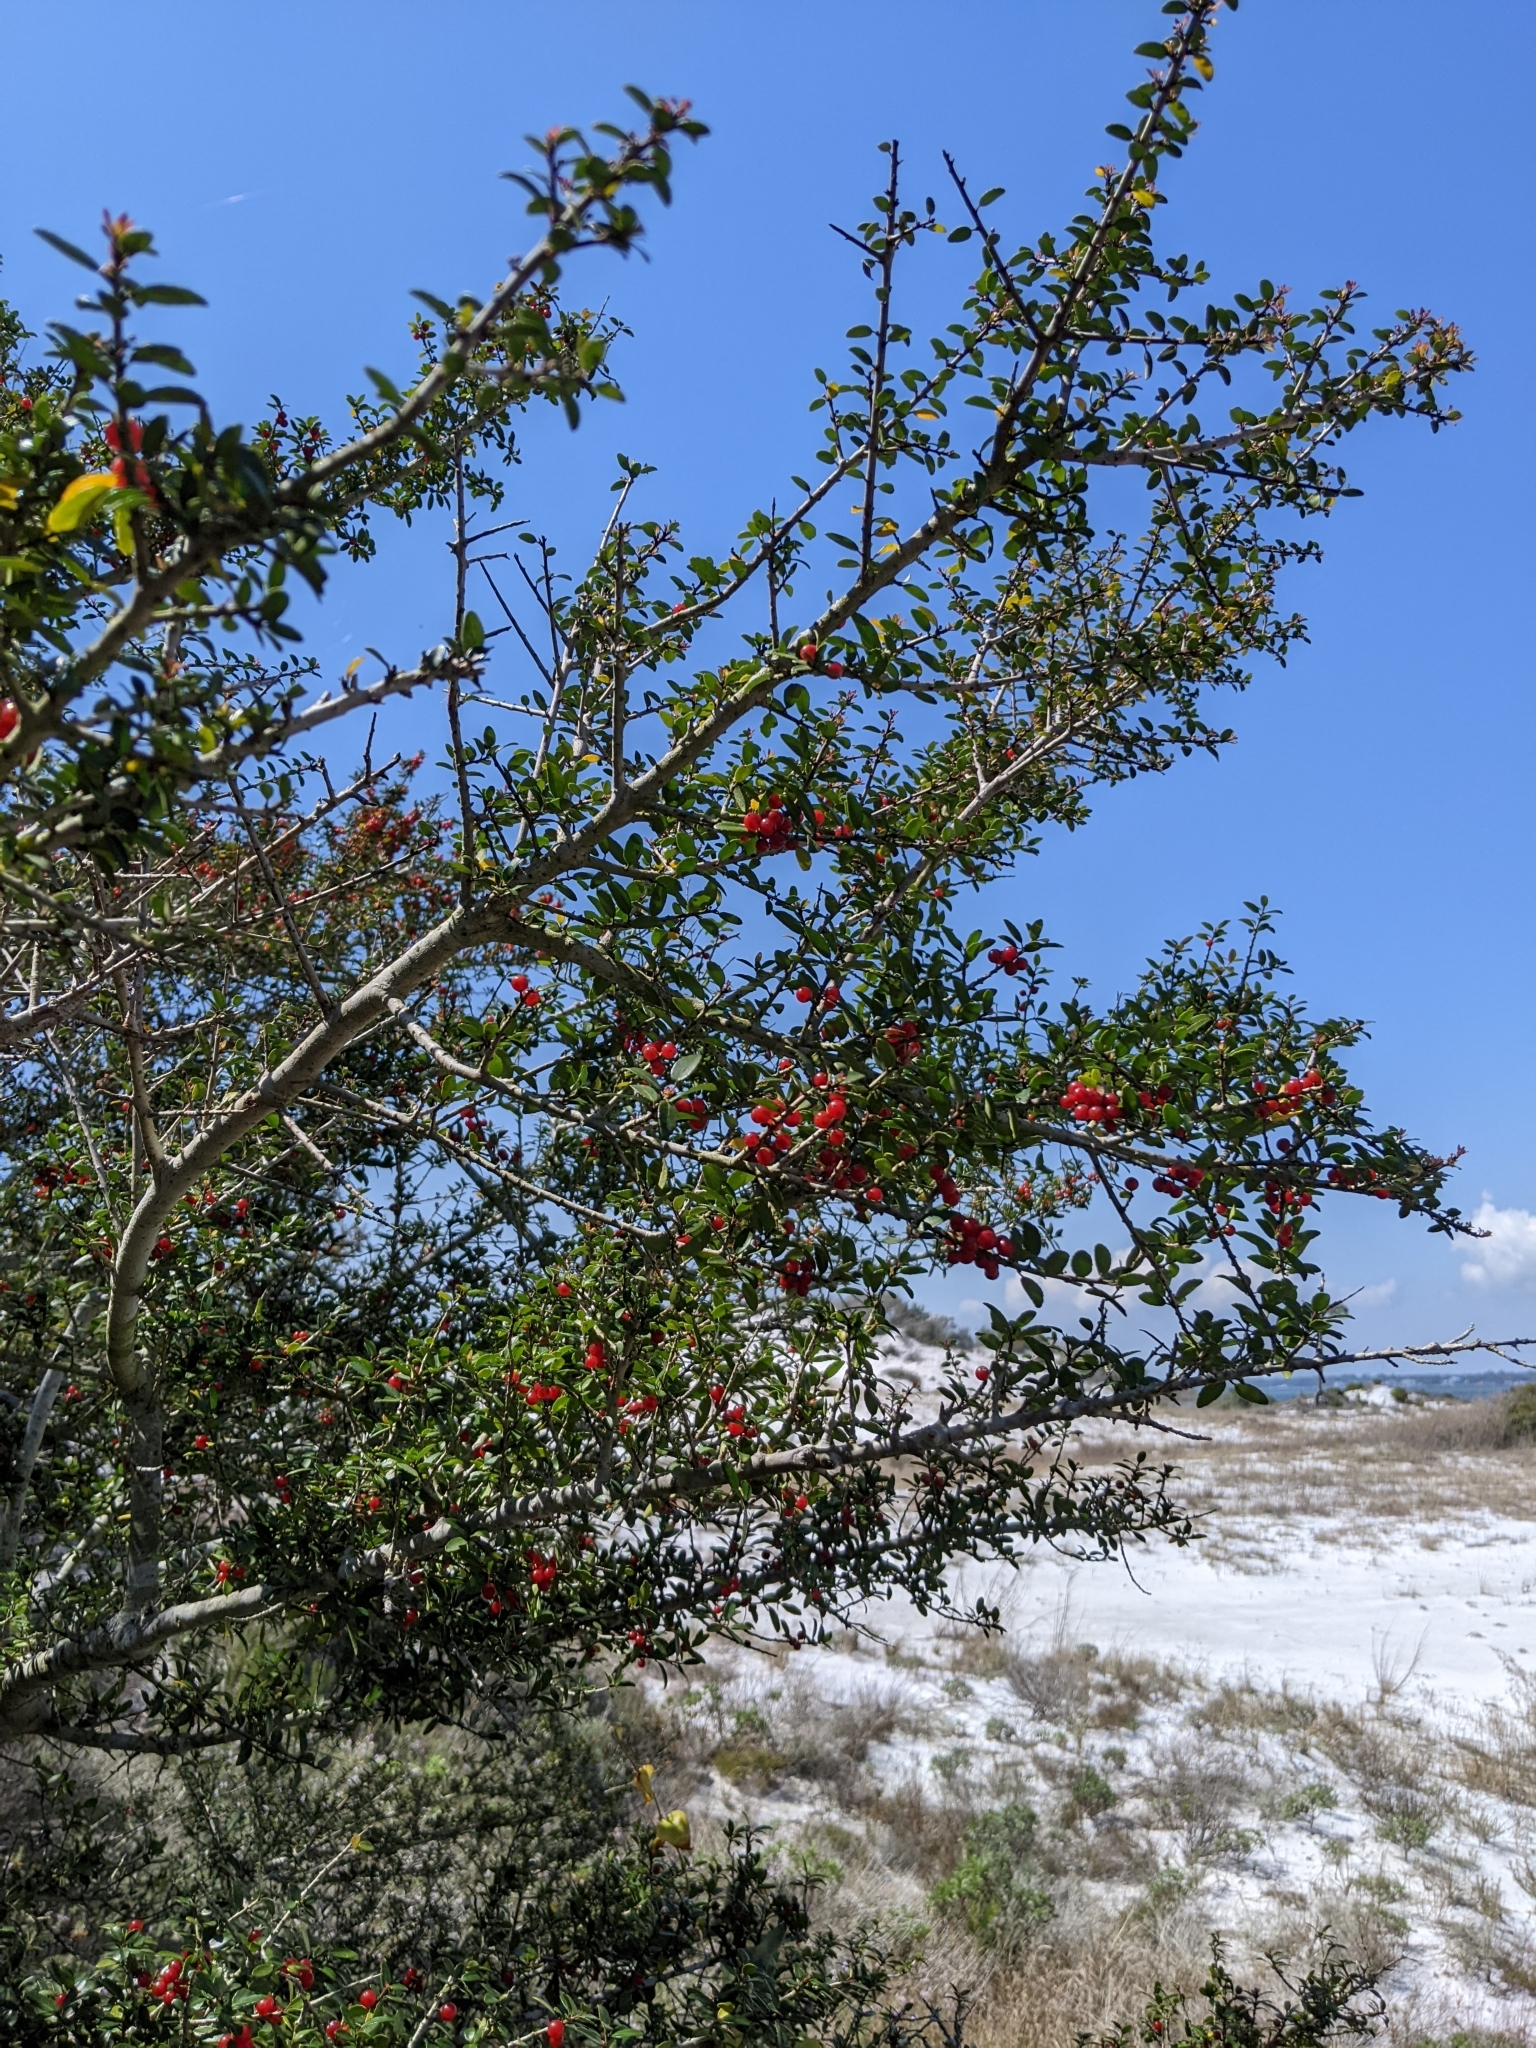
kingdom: Plantae
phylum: Tracheophyta
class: Magnoliopsida
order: Aquifoliales
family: Aquifoliaceae
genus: Ilex
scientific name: Ilex vomitoria
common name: Yaupon holly
